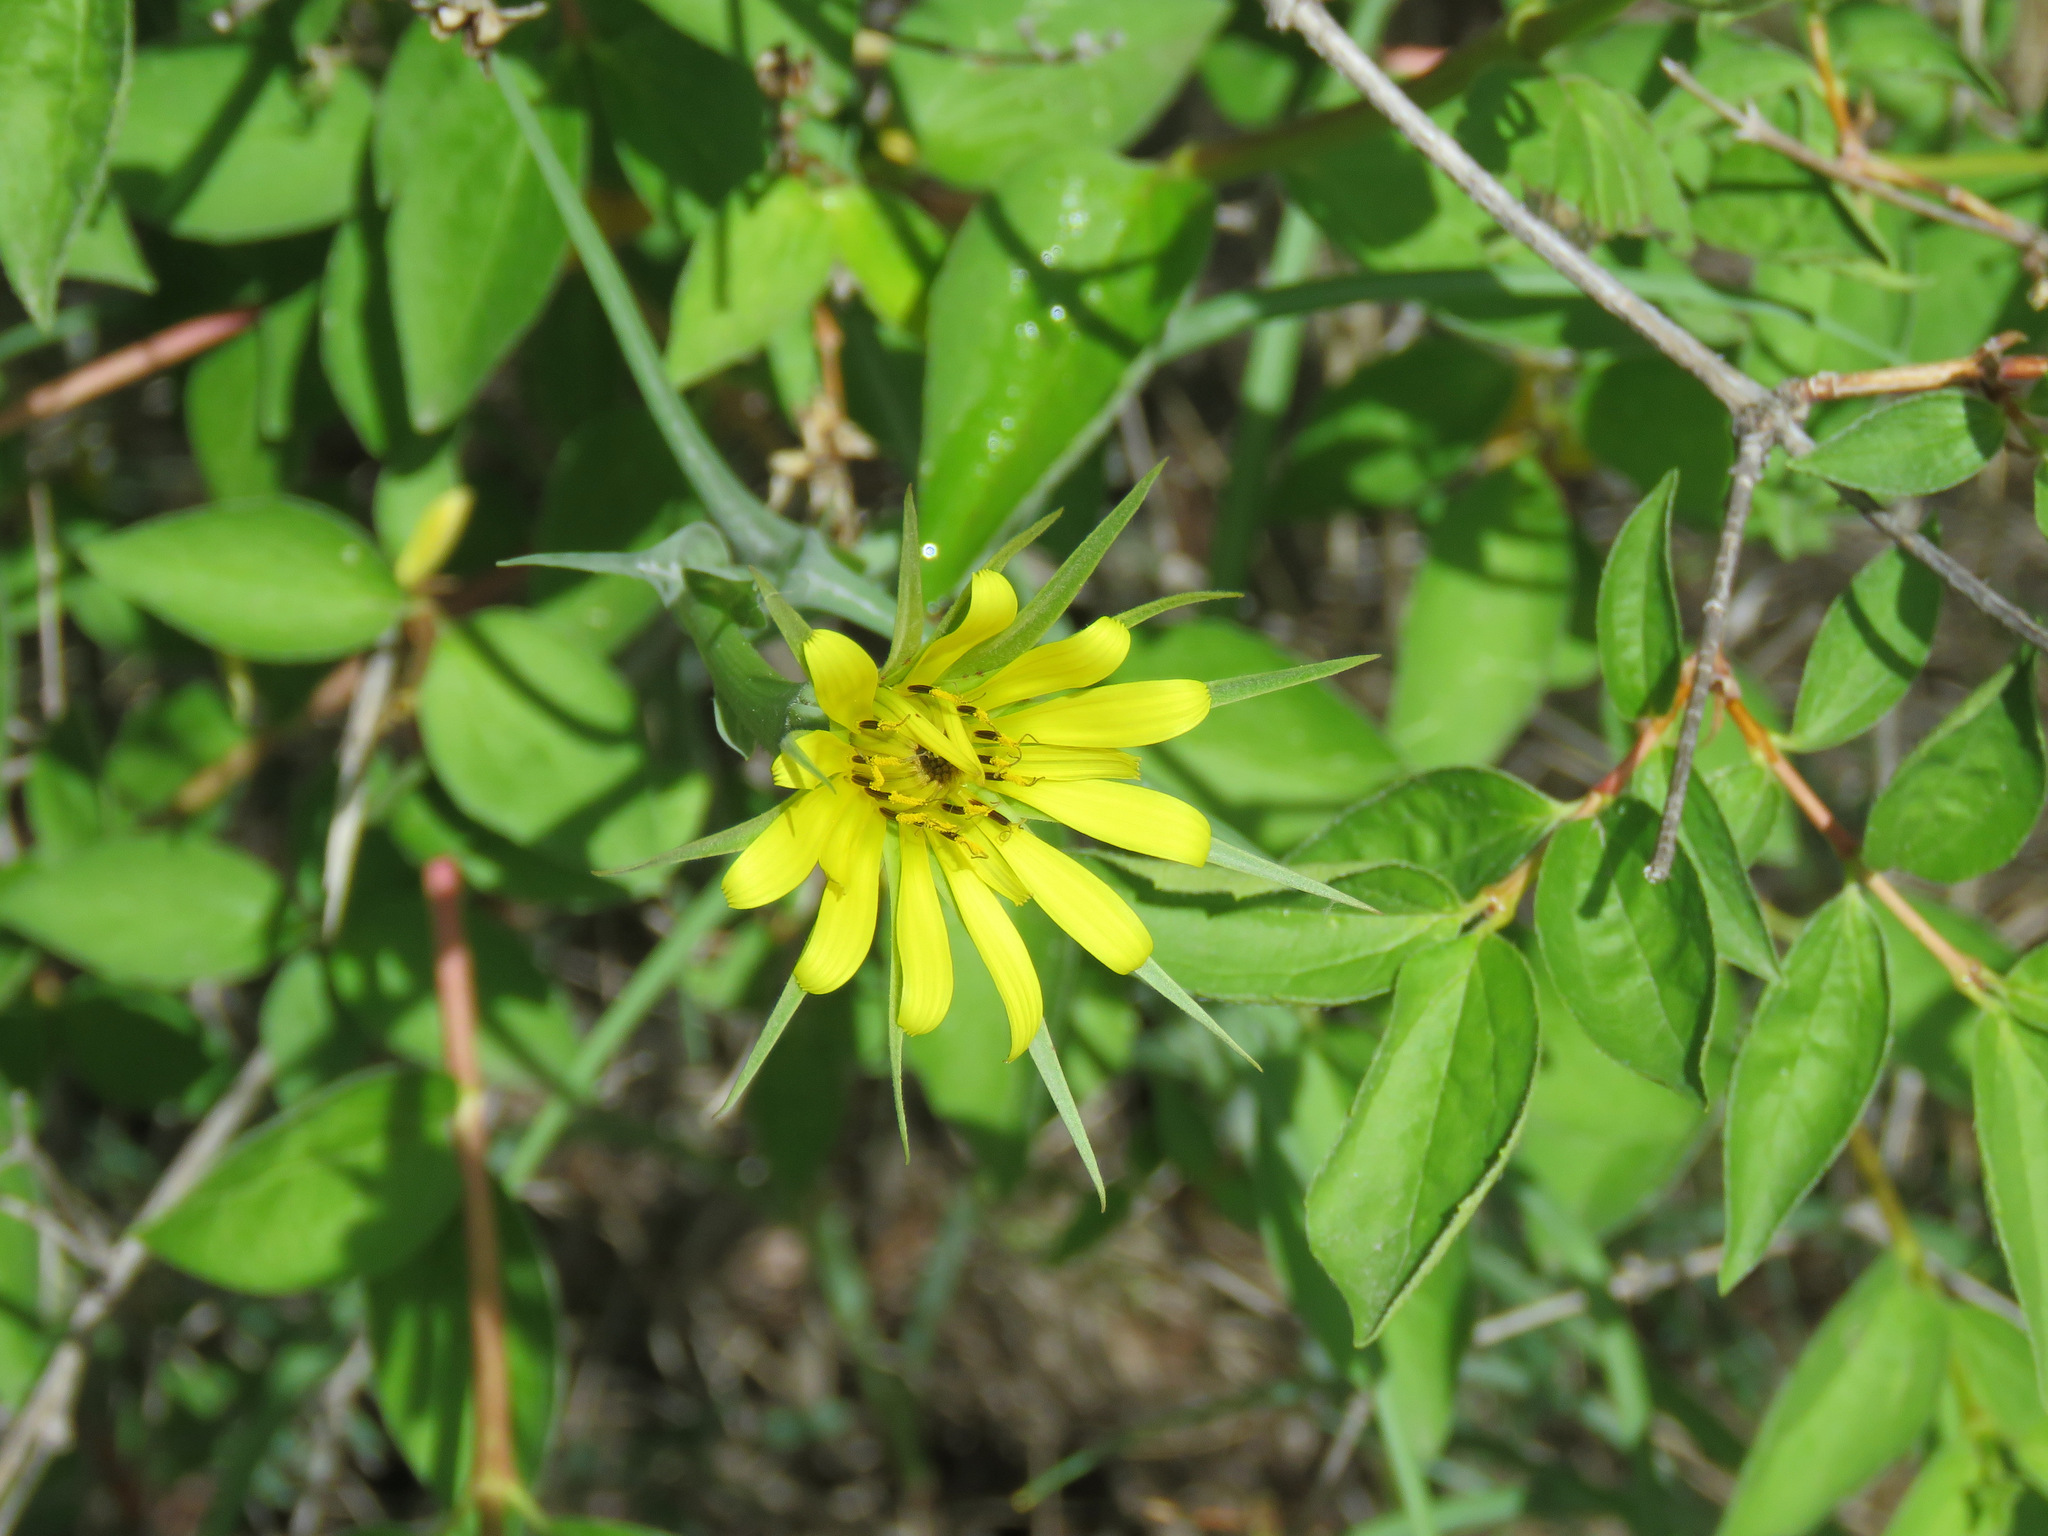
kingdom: Plantae
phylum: Tracheophyta
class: Magnoliopsida
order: Asterales
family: Asteraceae
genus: Tragopogon
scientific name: Tragopogon dubius
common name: Yellow salsify
